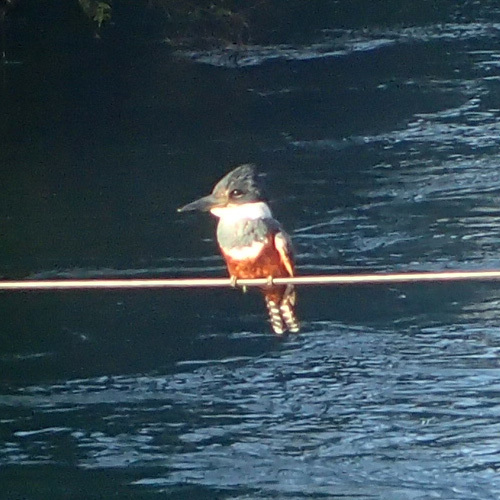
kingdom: Animalia
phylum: Chordata
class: Aves
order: Coraciiformes
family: Alcedinidae
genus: Megaceryle
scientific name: Megaceryle torquata
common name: Ringed kingfisher
